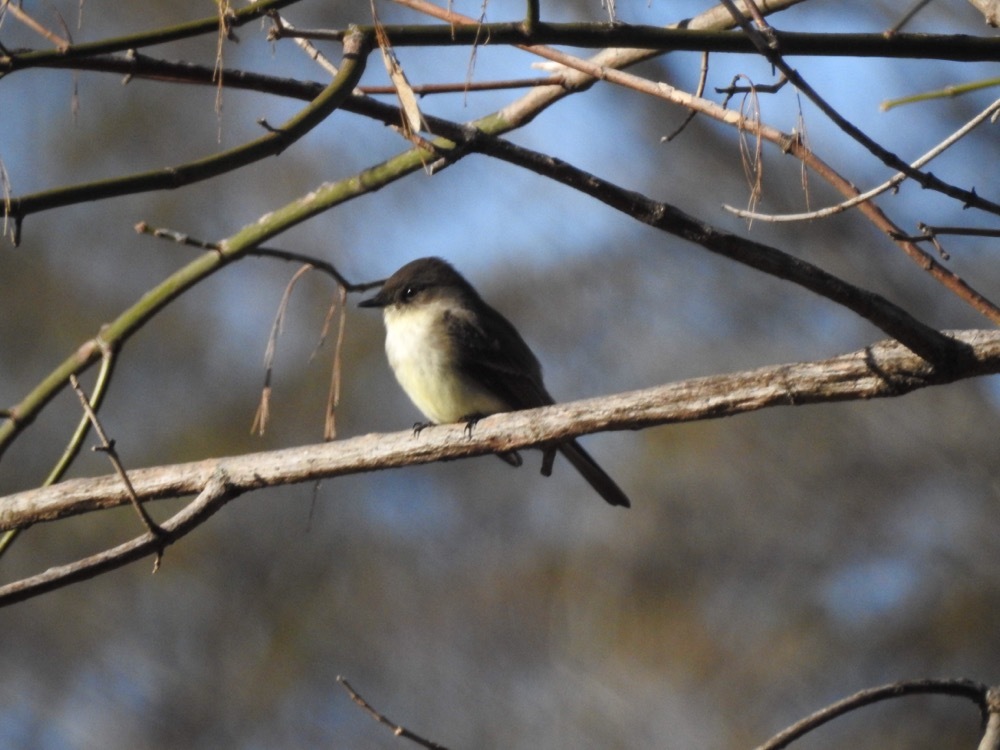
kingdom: Animalia
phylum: Chordata
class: Aves
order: Passeriformes
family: Tyrannidae
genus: Sayornis
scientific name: Sayornis phoebe
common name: Eastern phoebe
